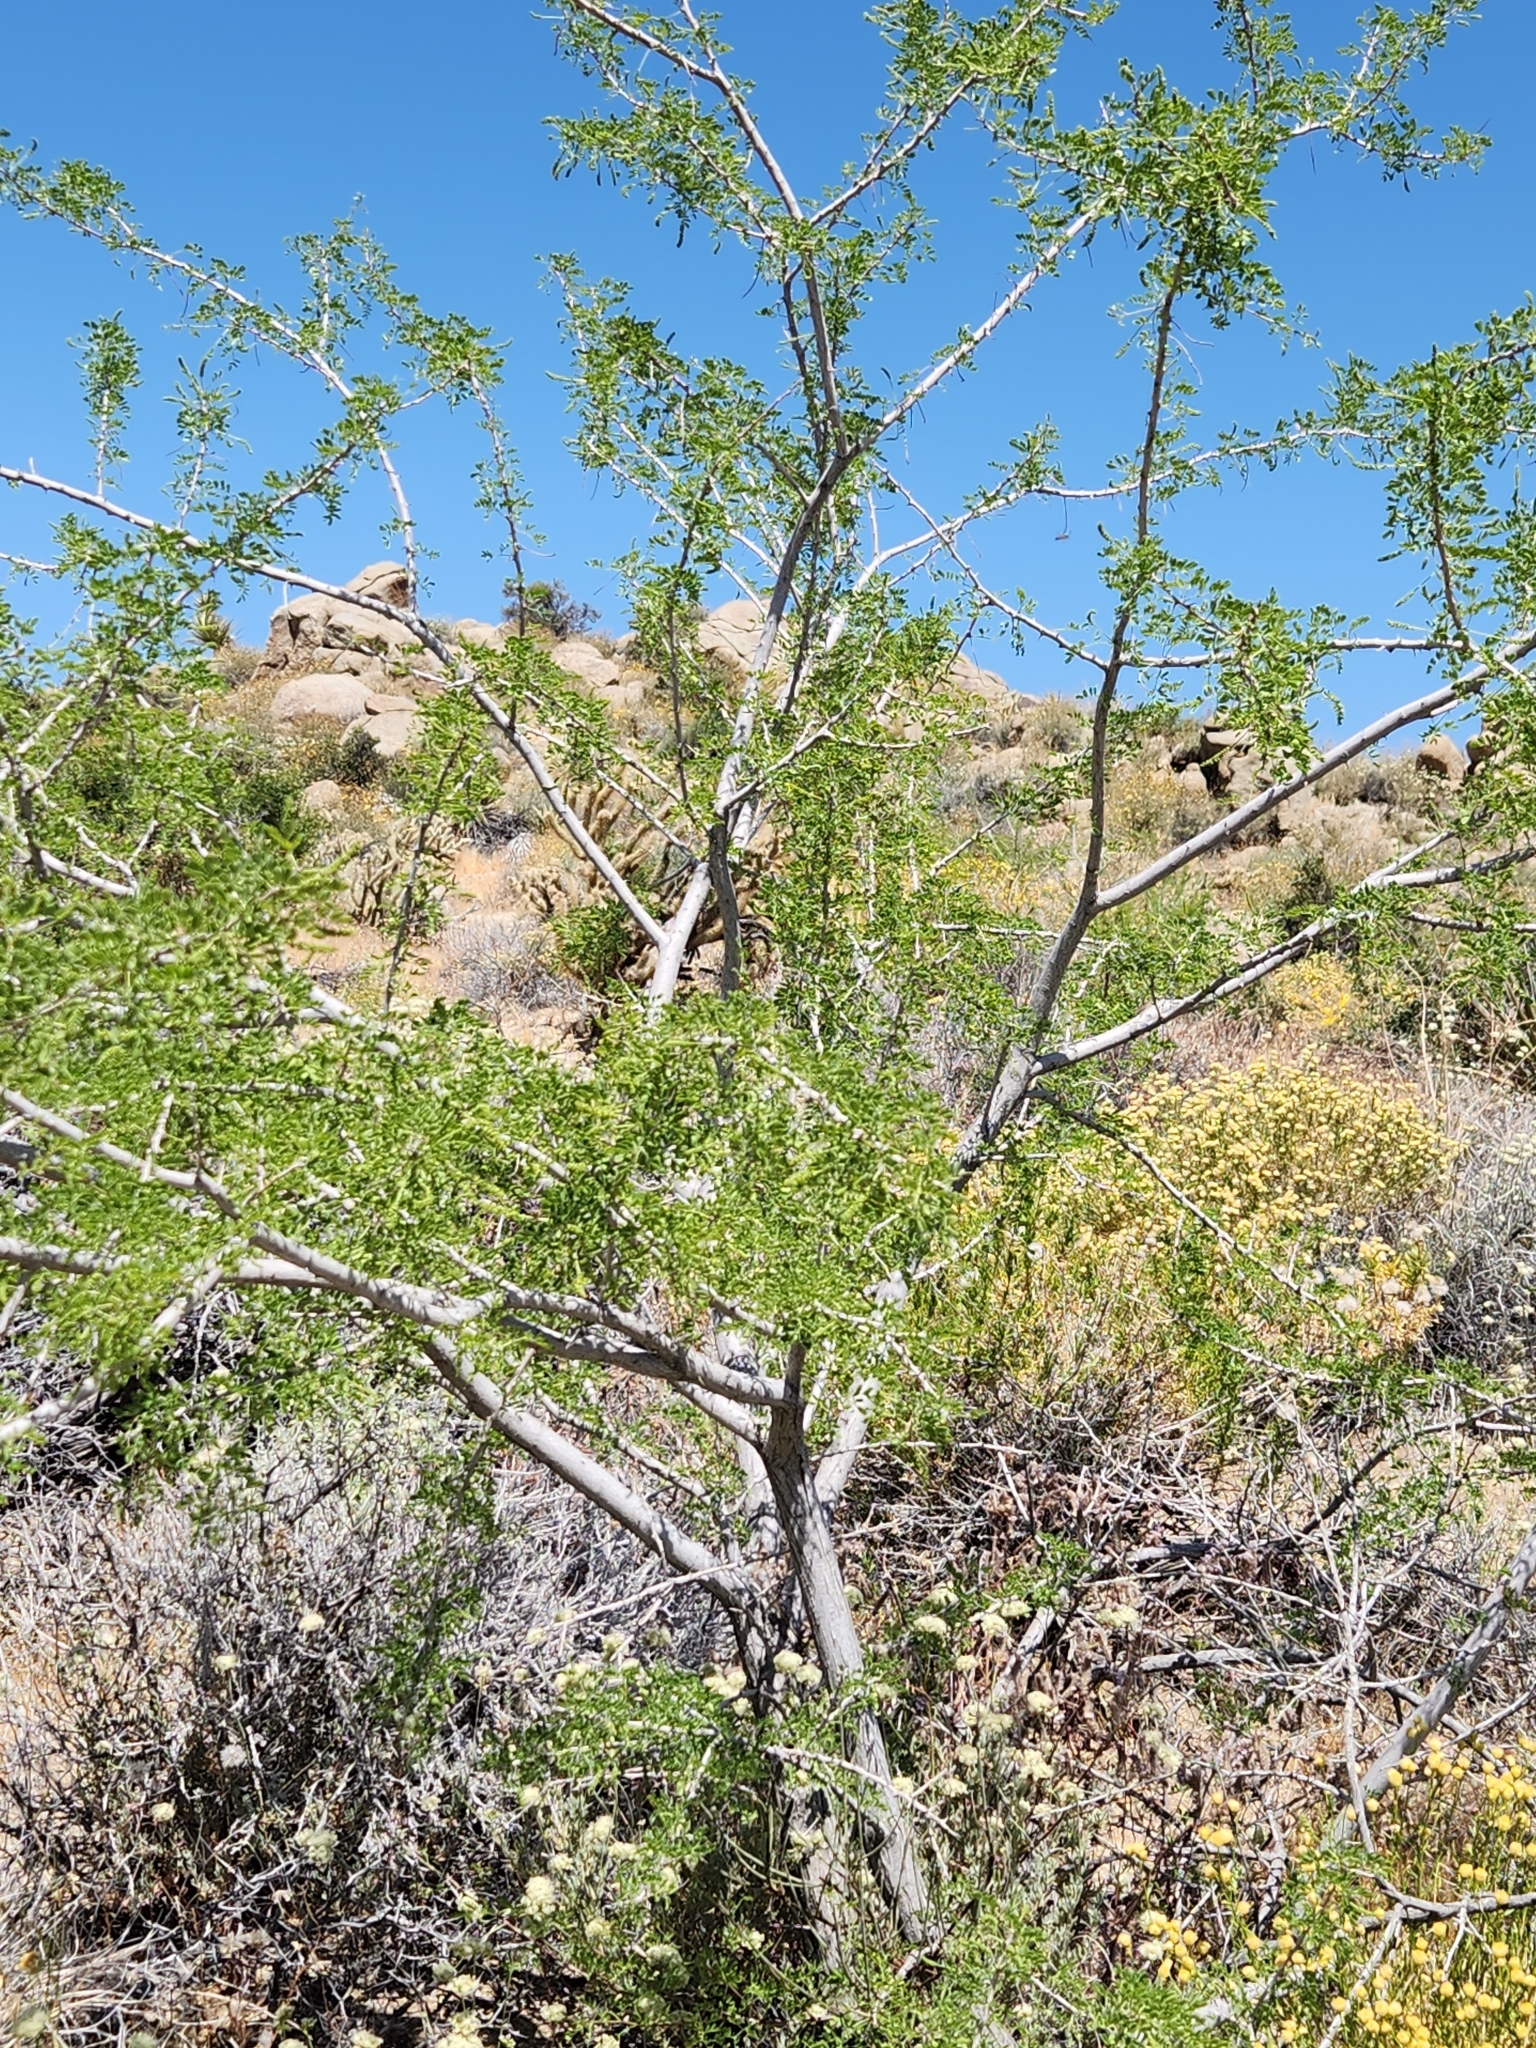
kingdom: Plantae
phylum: Tracheophyta
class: Magnoliopsida
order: Fabales
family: Fabaceae
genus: Senegalia
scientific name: Senegalia greggii
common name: Texas-mimosa
